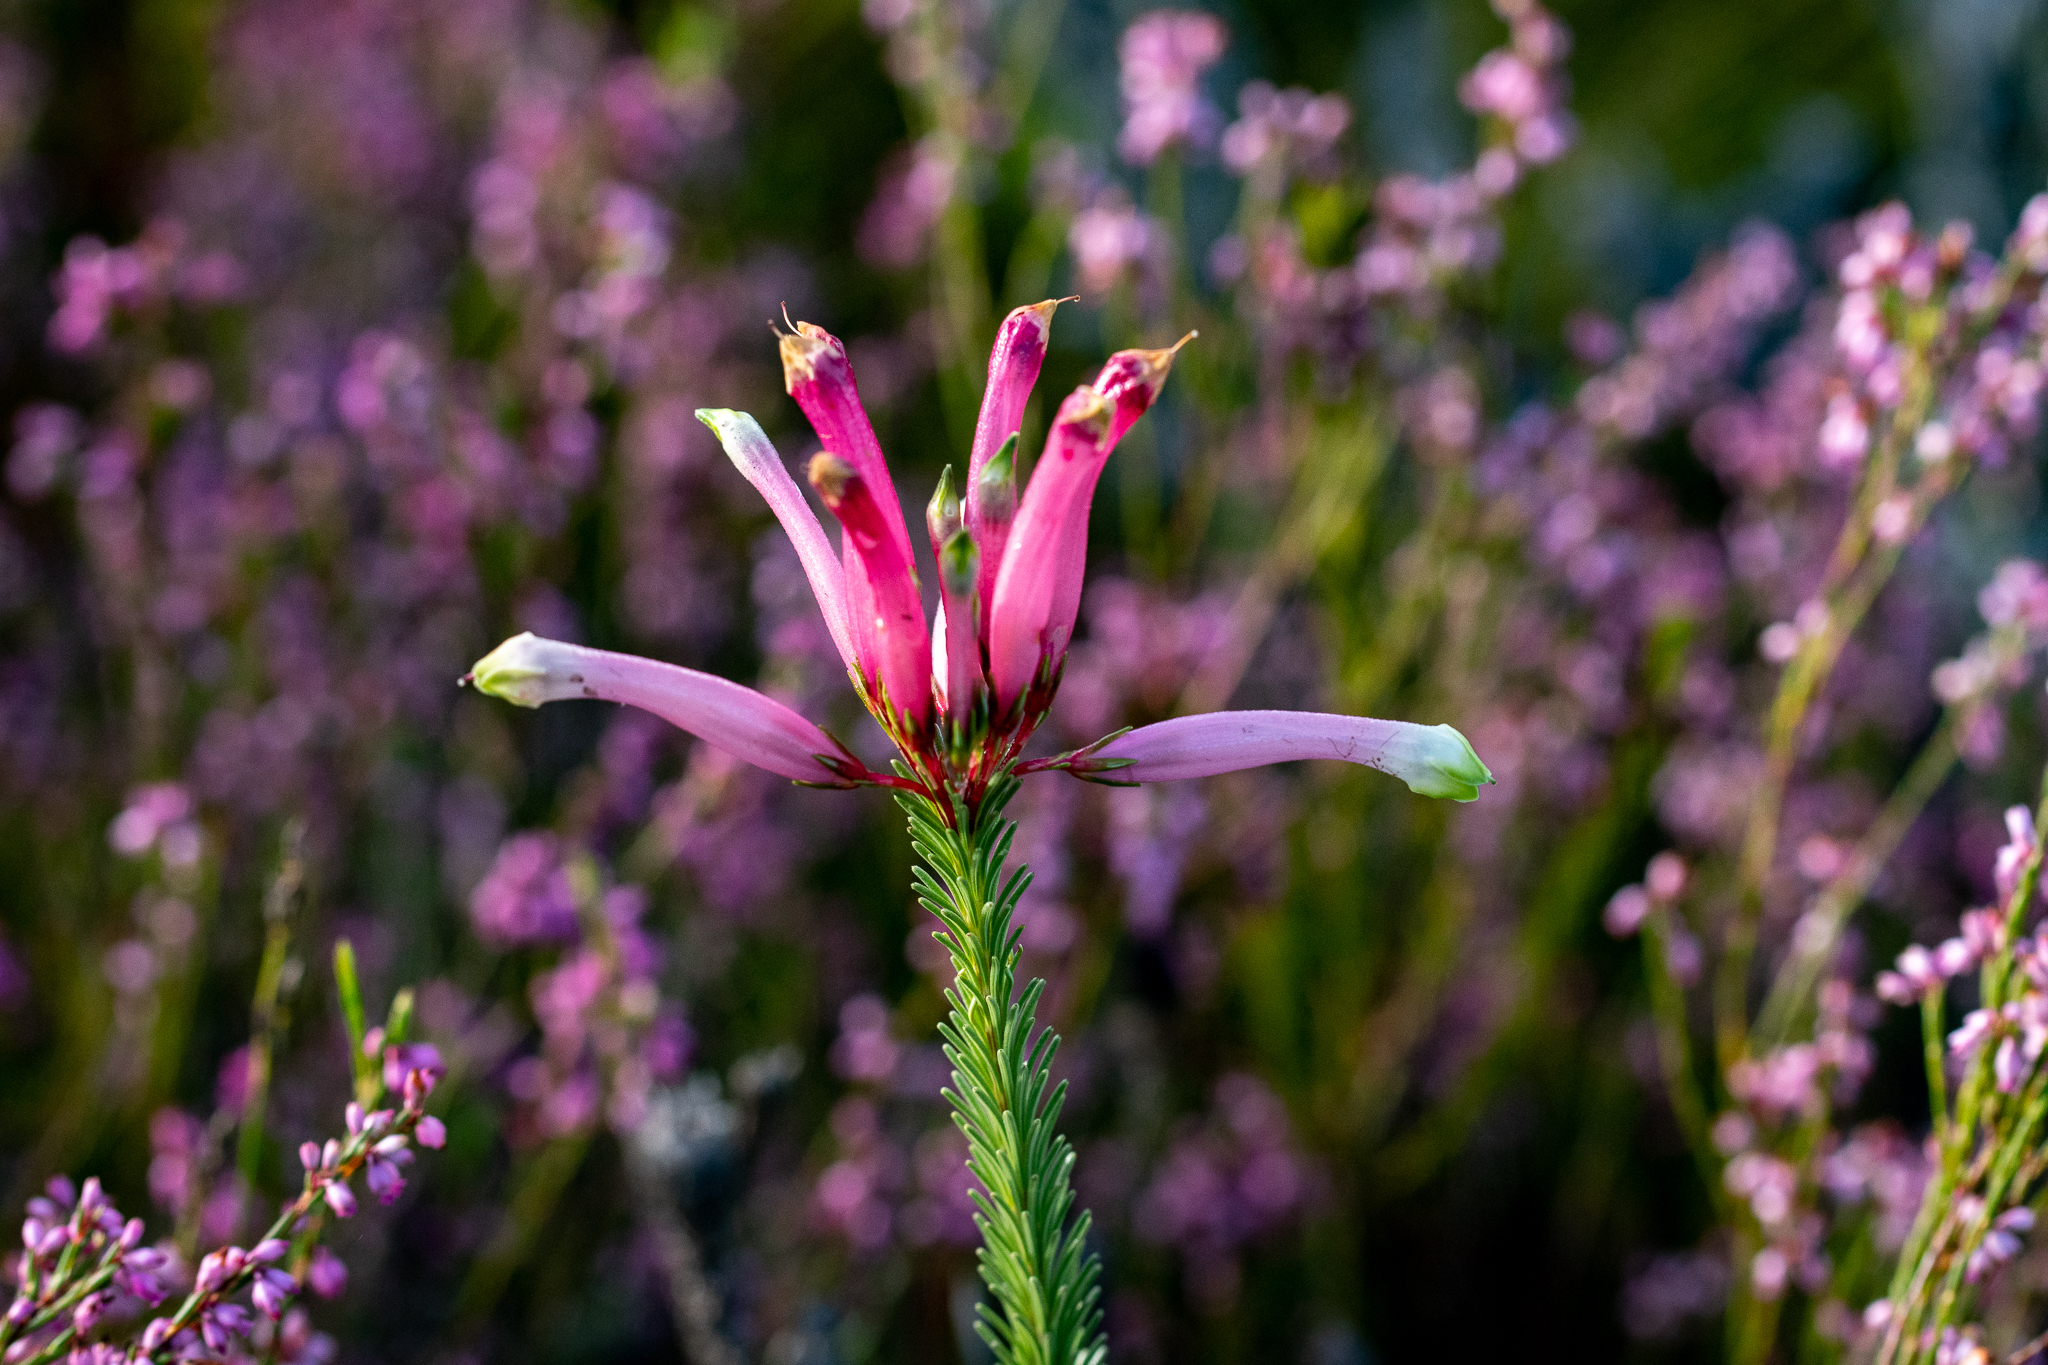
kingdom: Plantae
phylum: Tracheophyta
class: Magnoliopsida
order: Ericales
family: Ericaceae
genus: Erica
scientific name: Erica fascicularis
